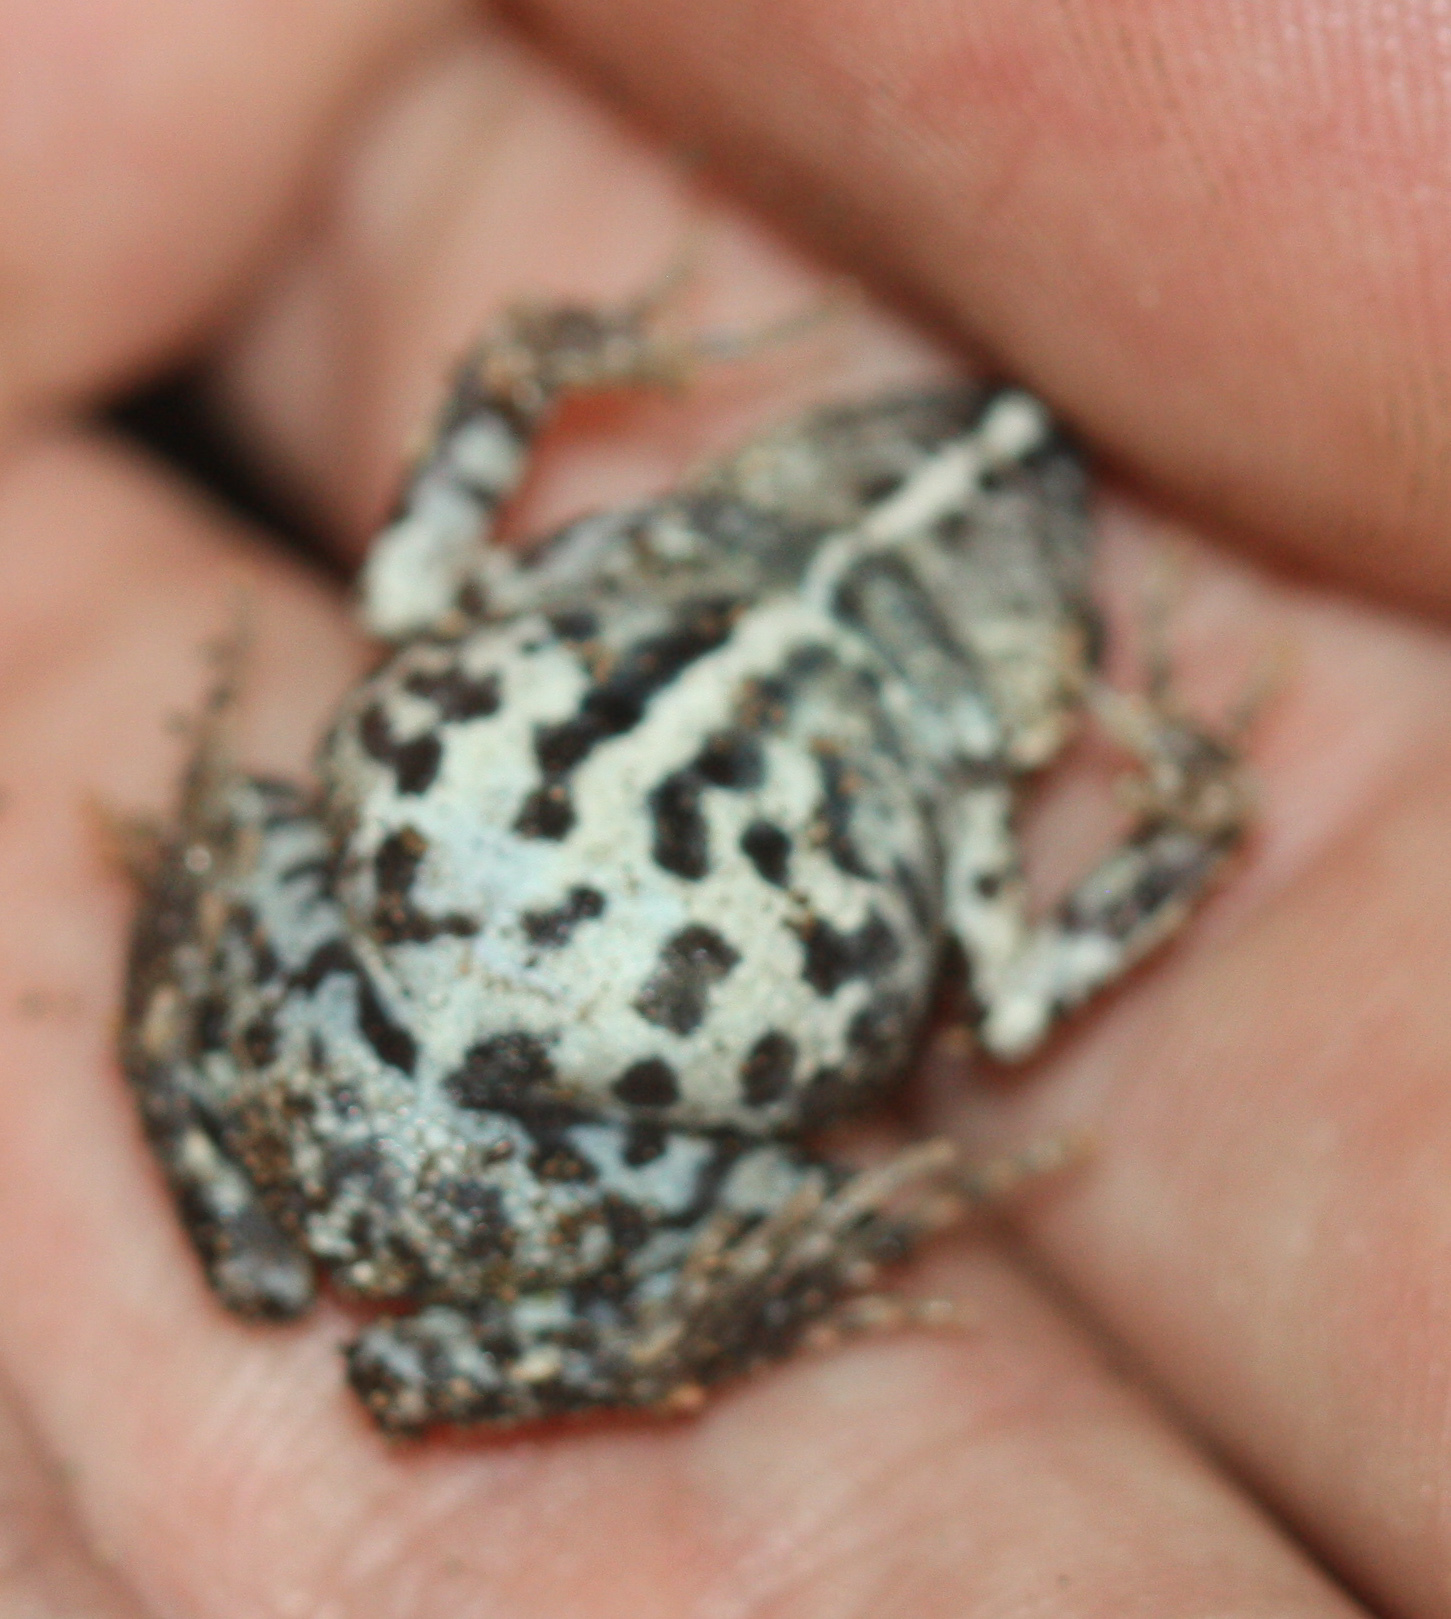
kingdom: Animalia
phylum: Chordata
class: Amphibia
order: Anura
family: Leptodactylidae
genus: Engystomops
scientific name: Engystomops pustulosus
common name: Tungara frog
